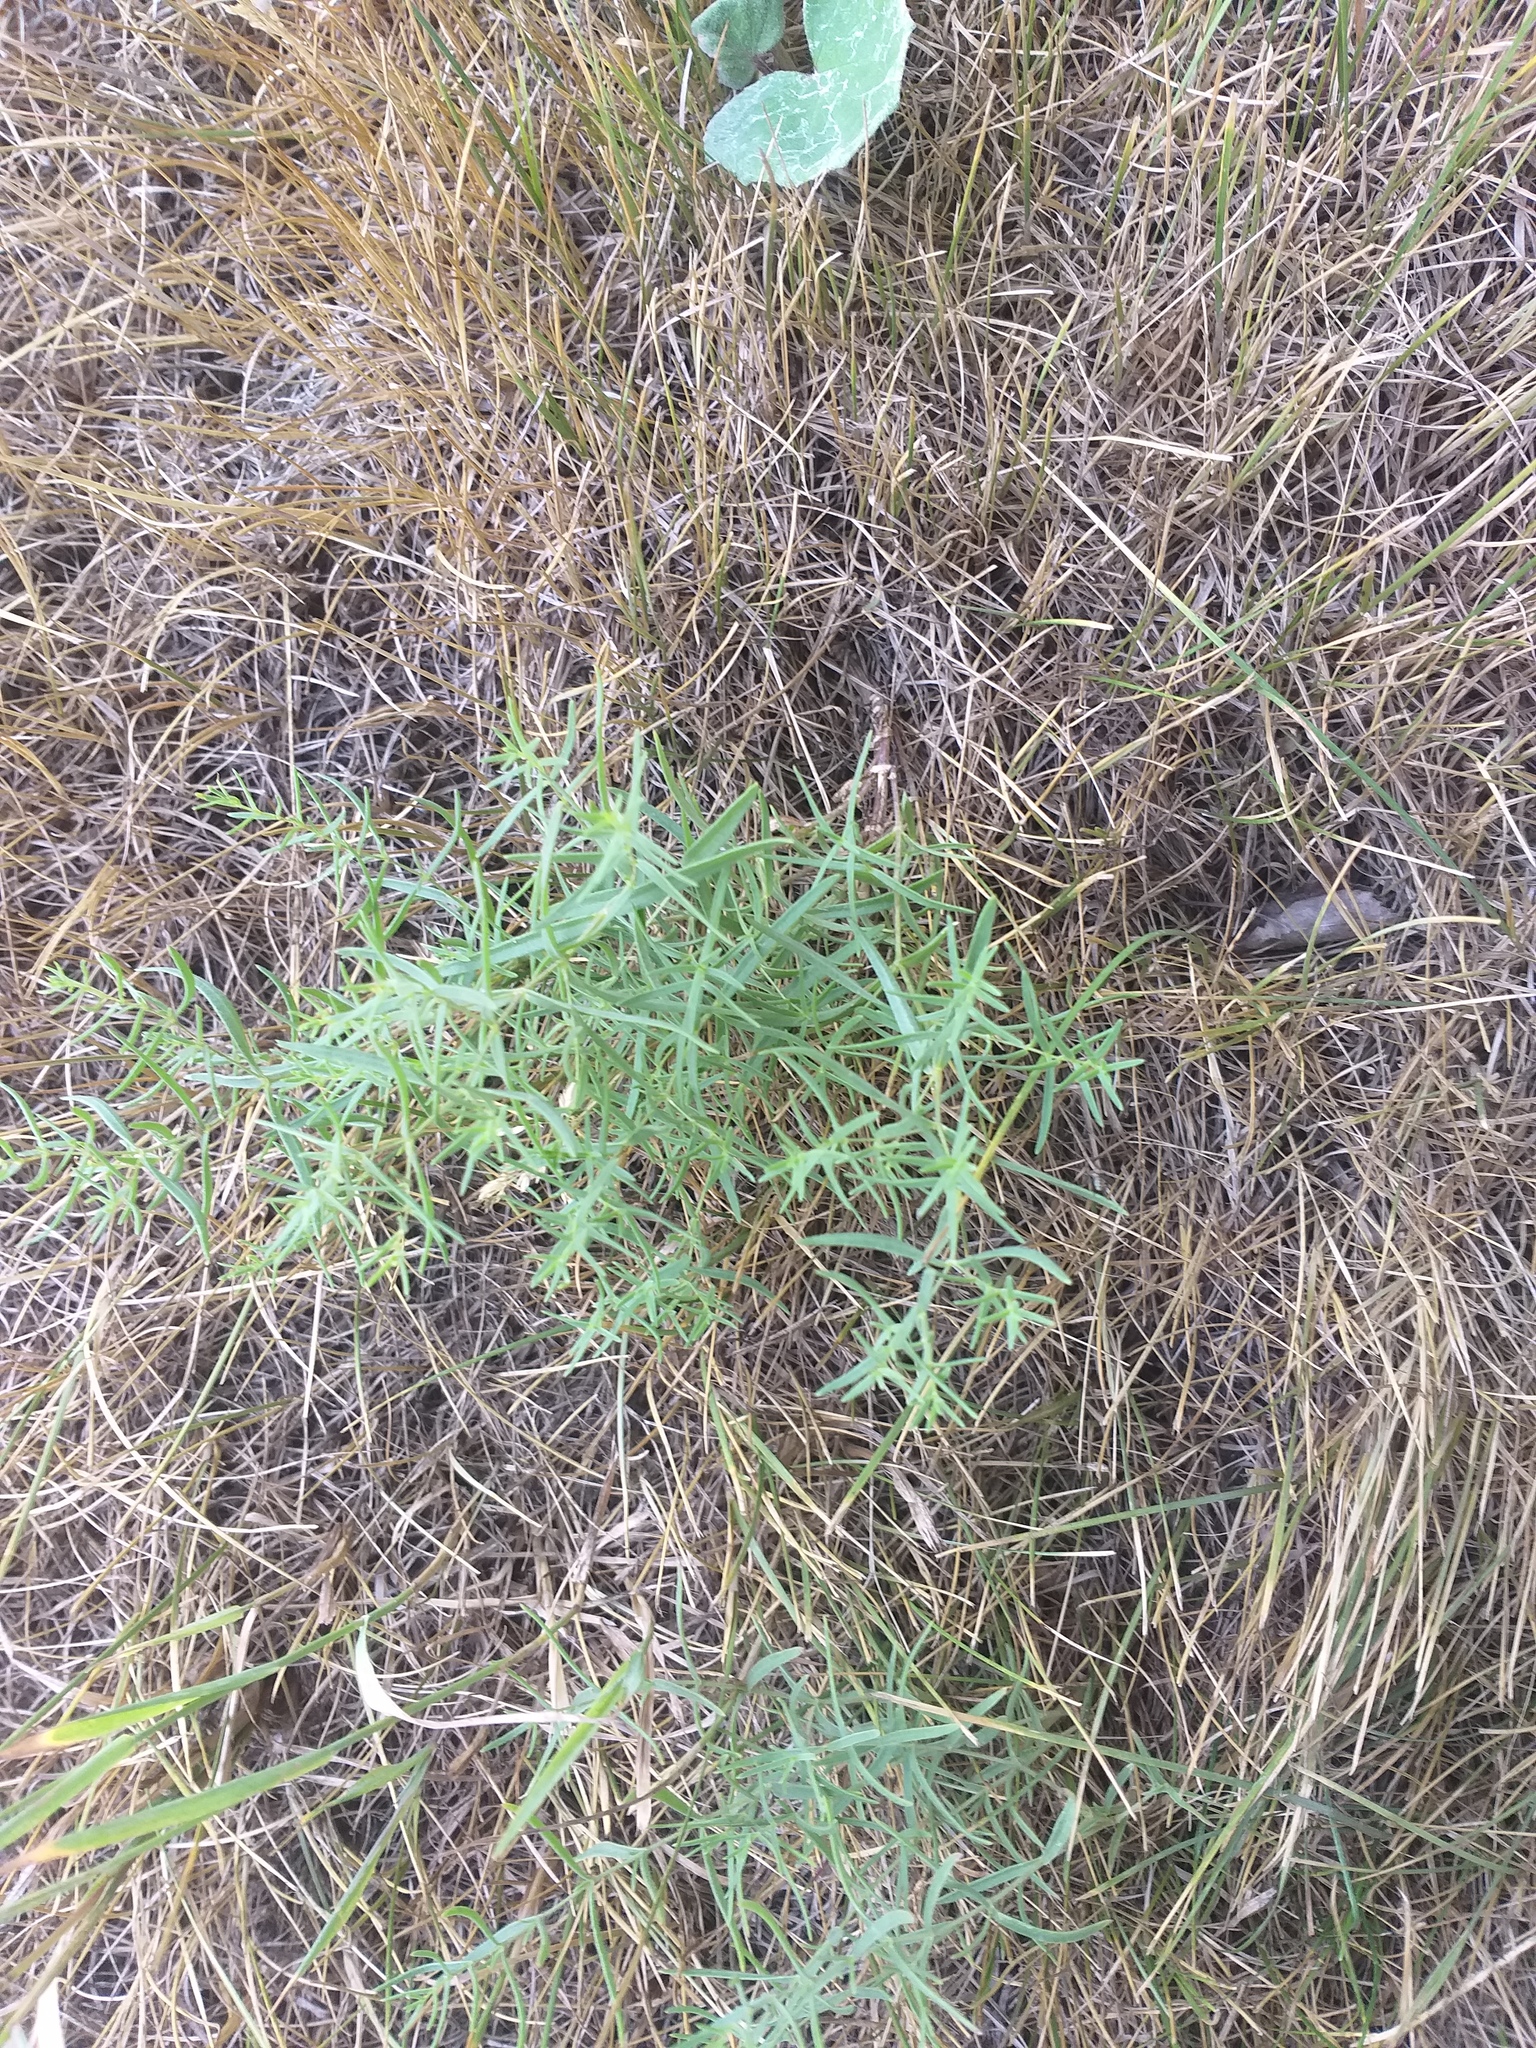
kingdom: Plantae
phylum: Tracheophyta
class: Magnoliopsida
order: Caryophyllales
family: Caryophyllaceae
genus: Gypsophila
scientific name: Gypsophila paniculata
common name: Baby's-breath
